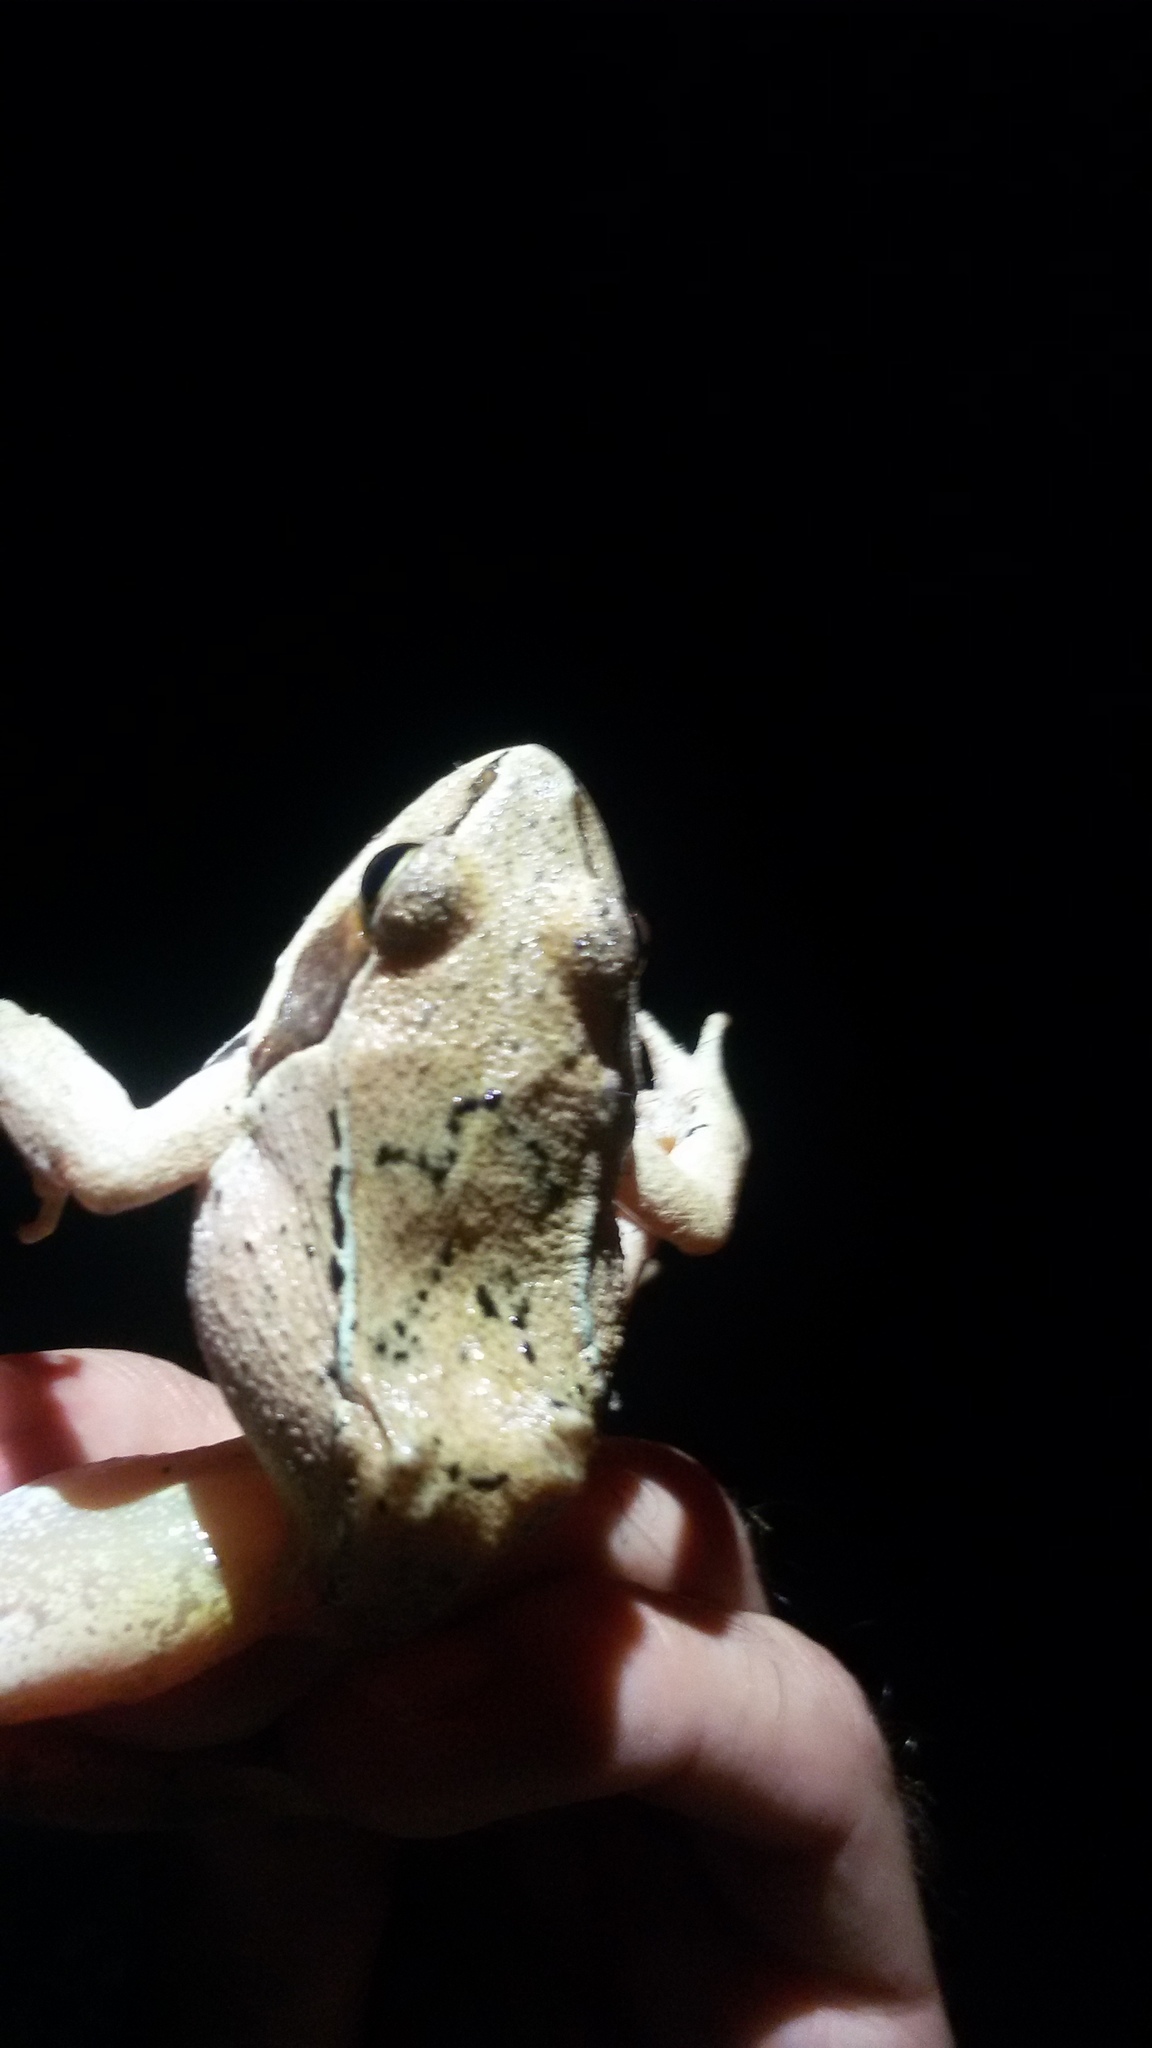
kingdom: Animalia
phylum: Chordata
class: Amphibia
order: Anura
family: Ranidae
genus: Rana
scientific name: Rana dalmatina
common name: Agile frog
